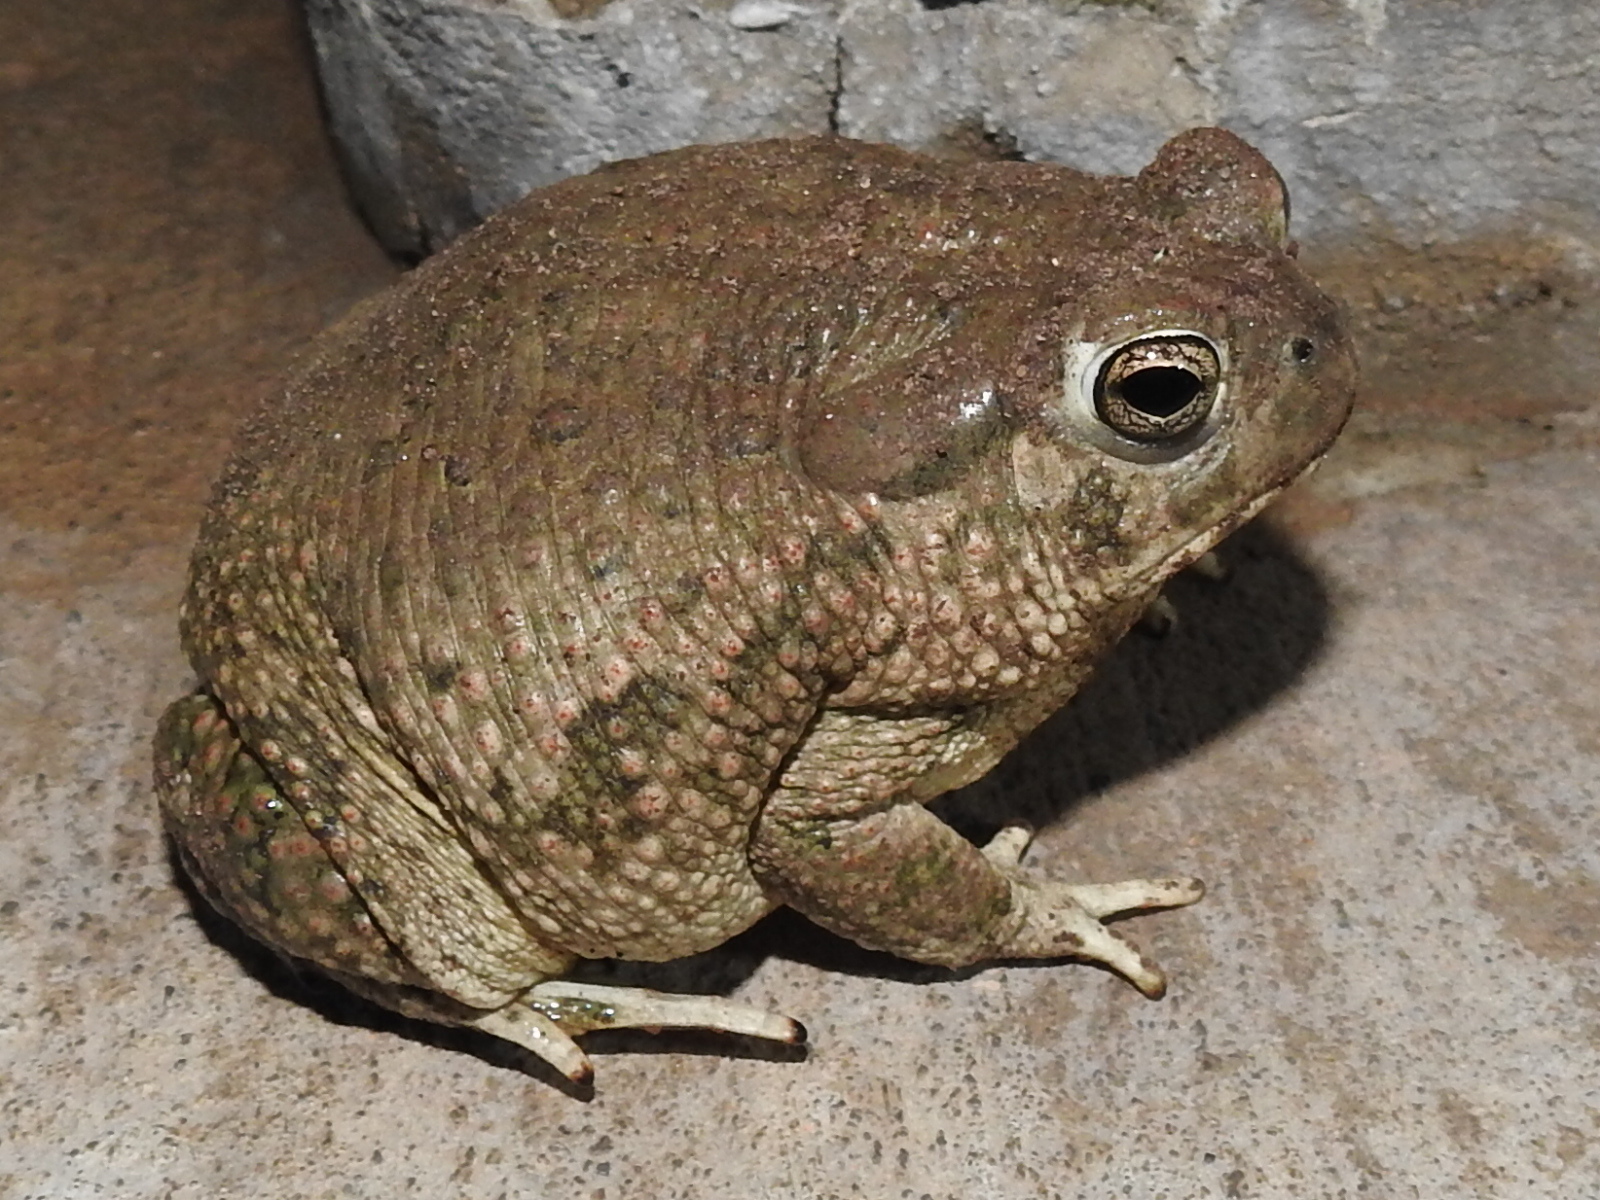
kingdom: Animalia
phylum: Chordata
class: Amphibia
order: Anura
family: Bufonidae
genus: Anaxyrus
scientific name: Anaxyrus speciosus
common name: Texas toad
